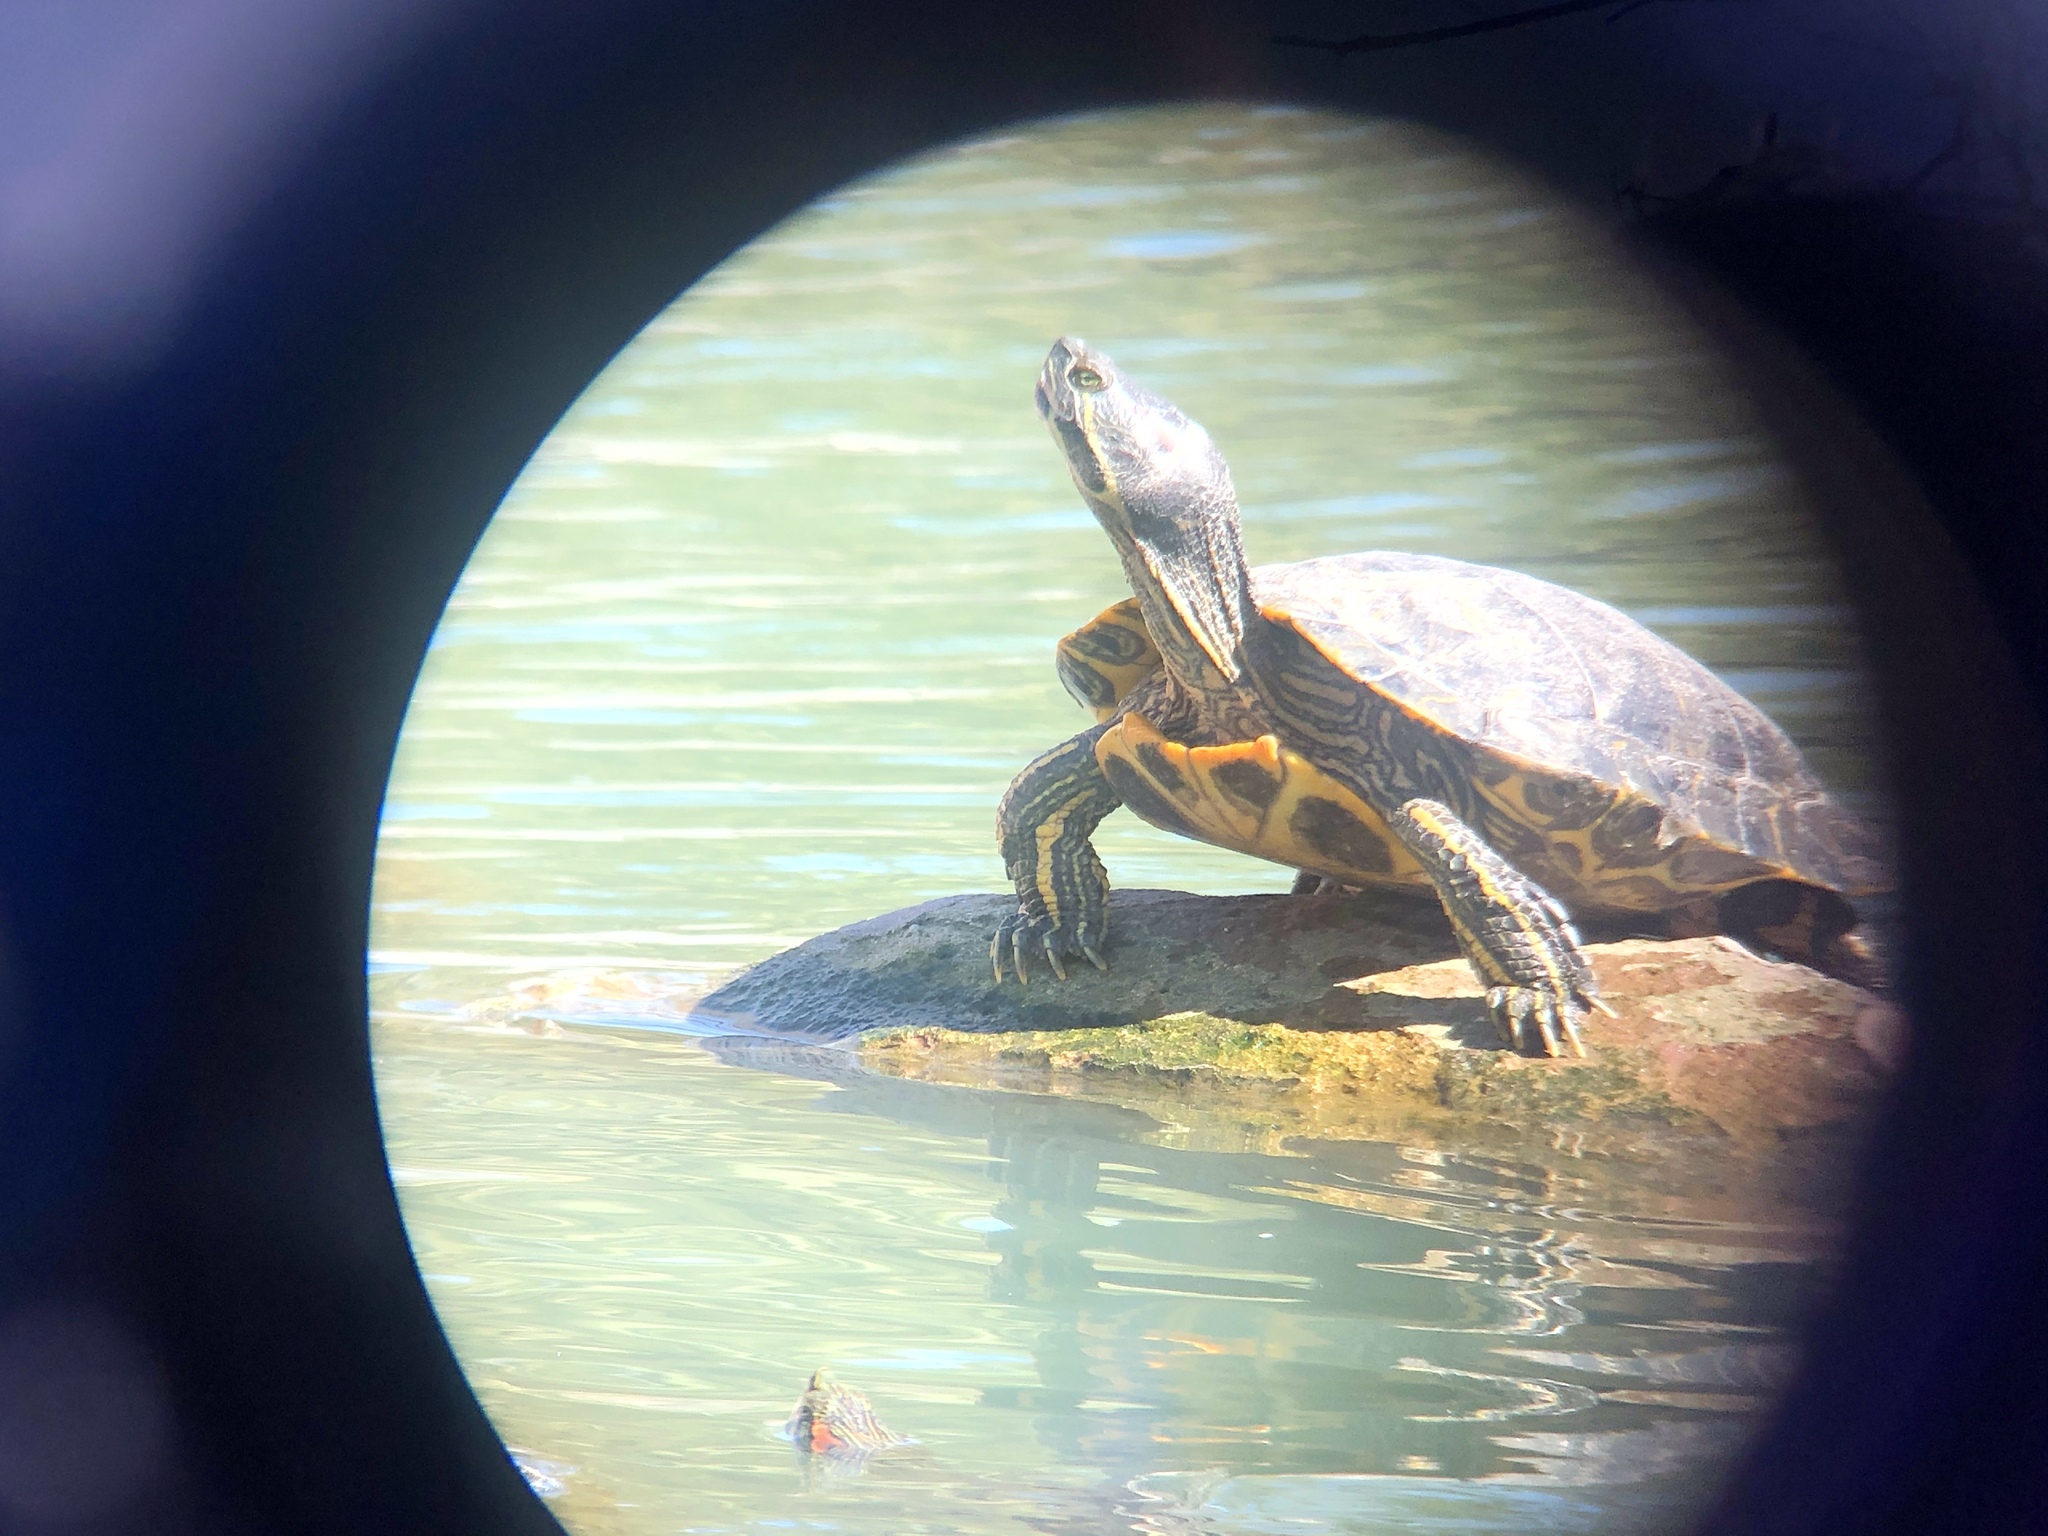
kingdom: Animalia
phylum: Chordata
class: Testudines
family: Emydidae
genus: Trachemys
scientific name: Trachemys scripta
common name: Slider
